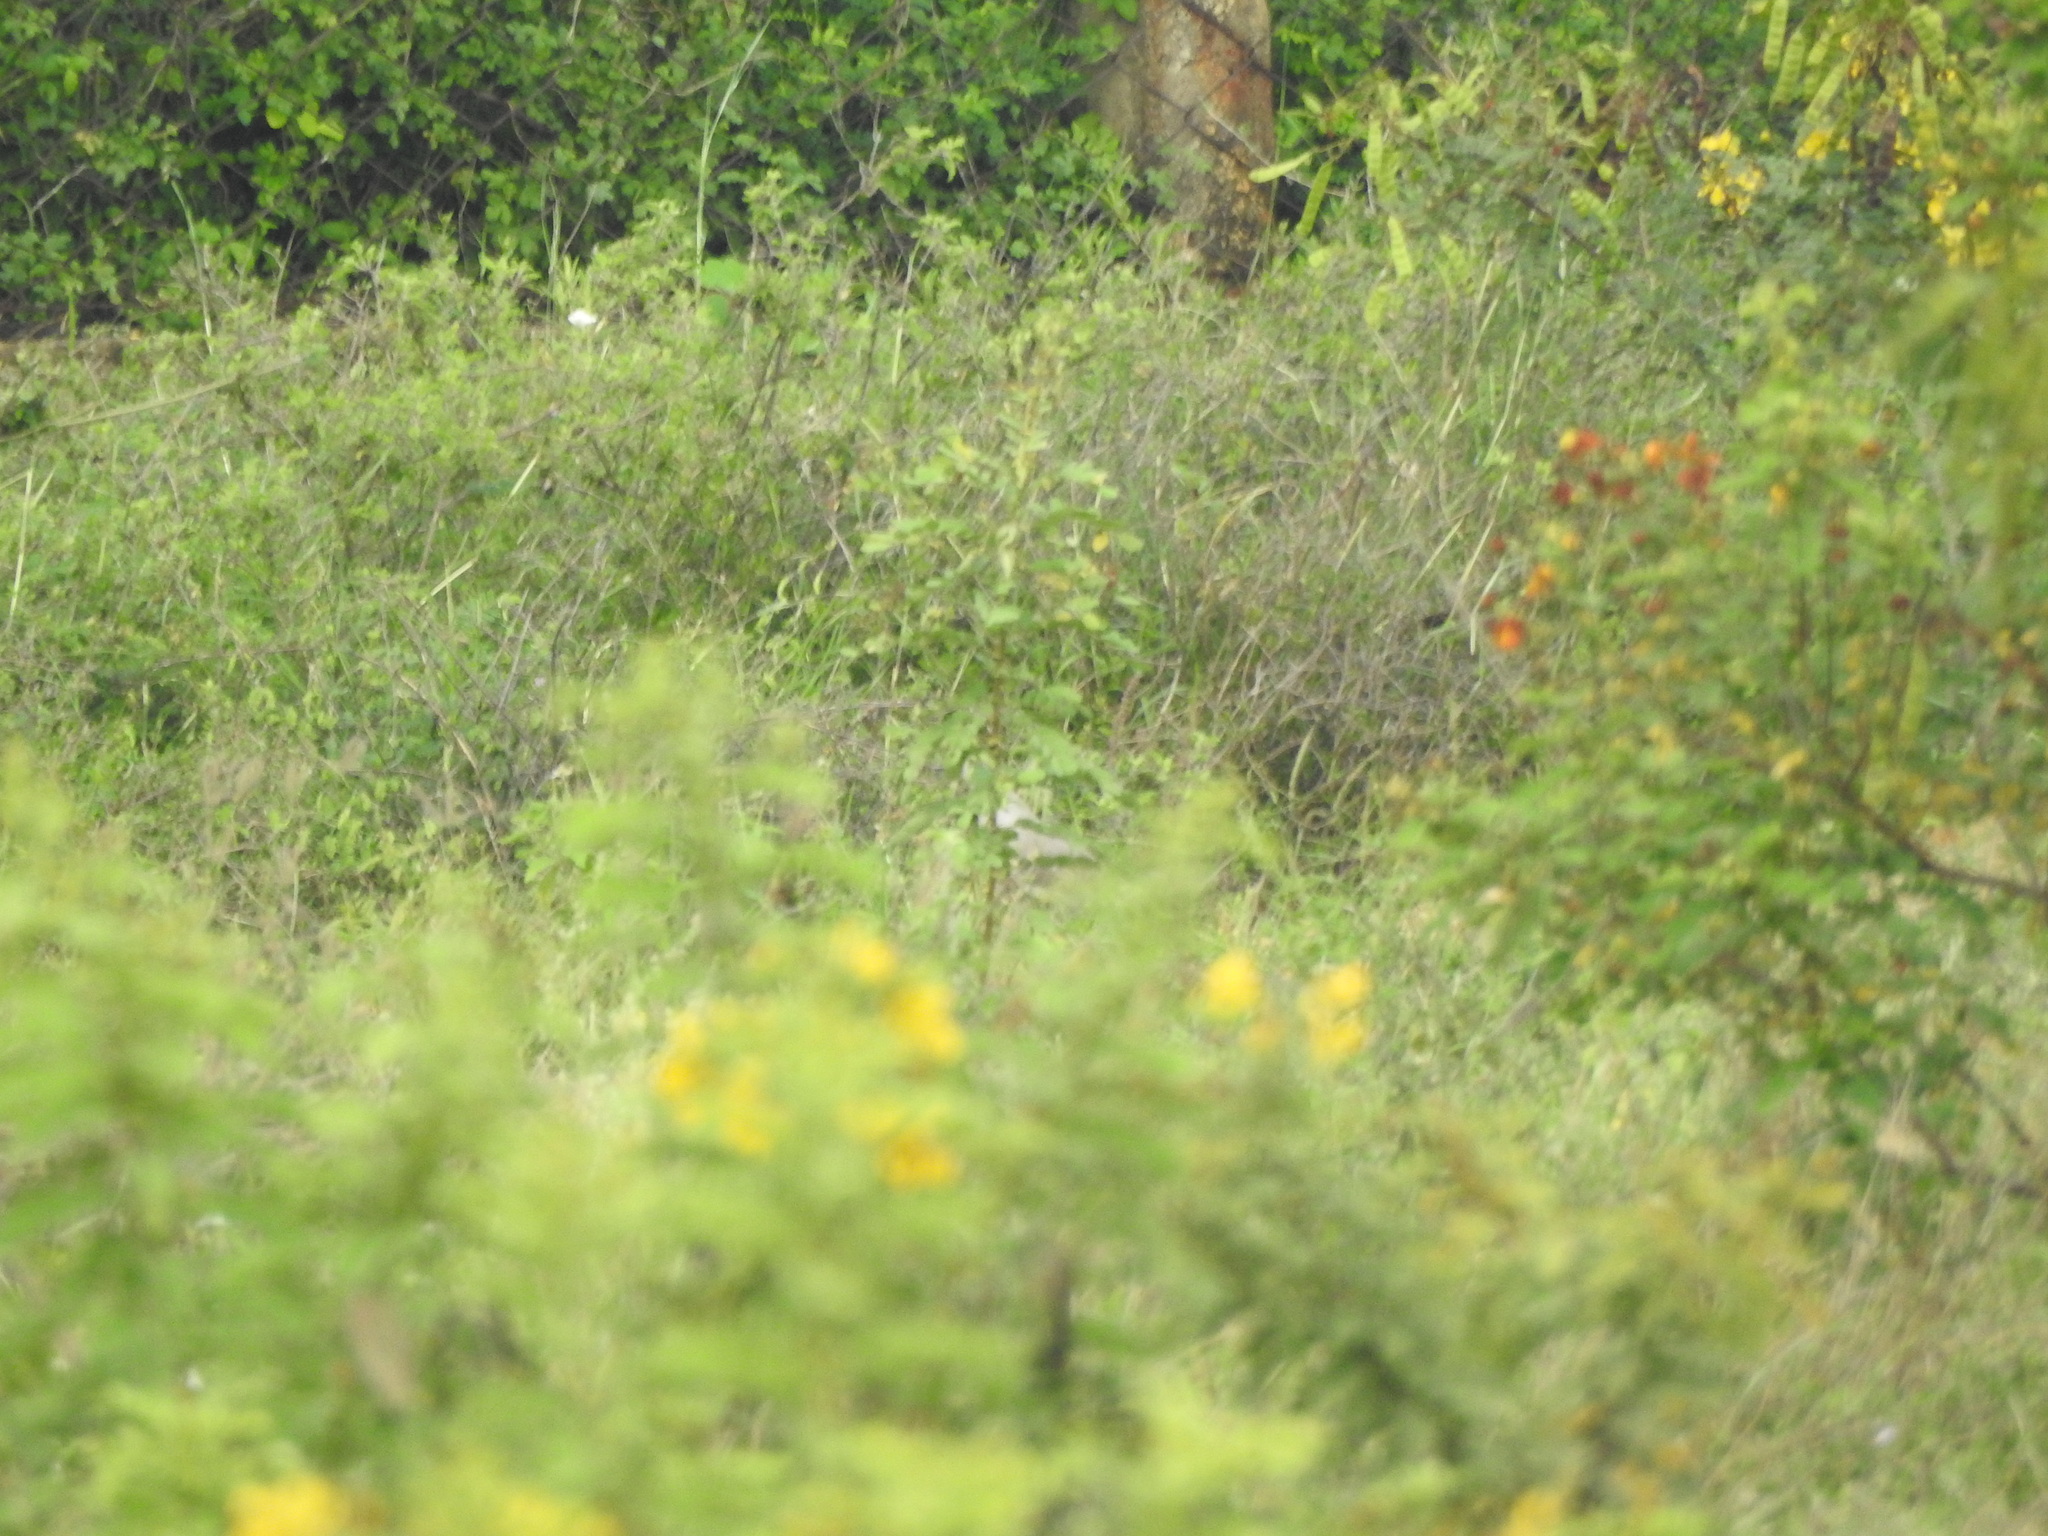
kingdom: Animalia
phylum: Chordata
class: Aves
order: Columbiformes
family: Columbidae
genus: Streptopelia
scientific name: Streptopelia decaocto
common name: Eurasian collared dove
